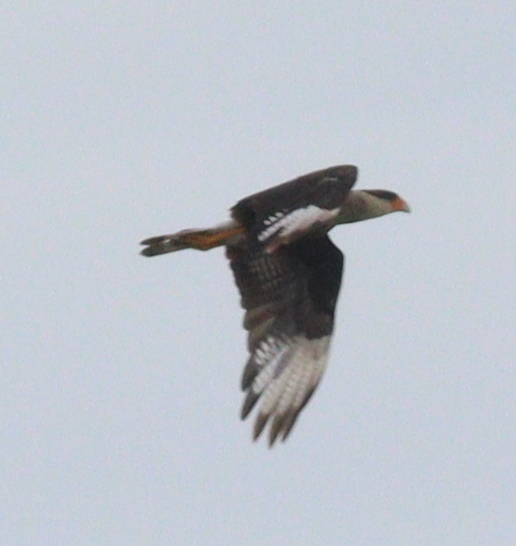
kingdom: Animalia
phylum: Chordata
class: Aves
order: Falconiformes
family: Falconidae
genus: Caracara
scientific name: Caracara plancus
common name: Southern caracara
